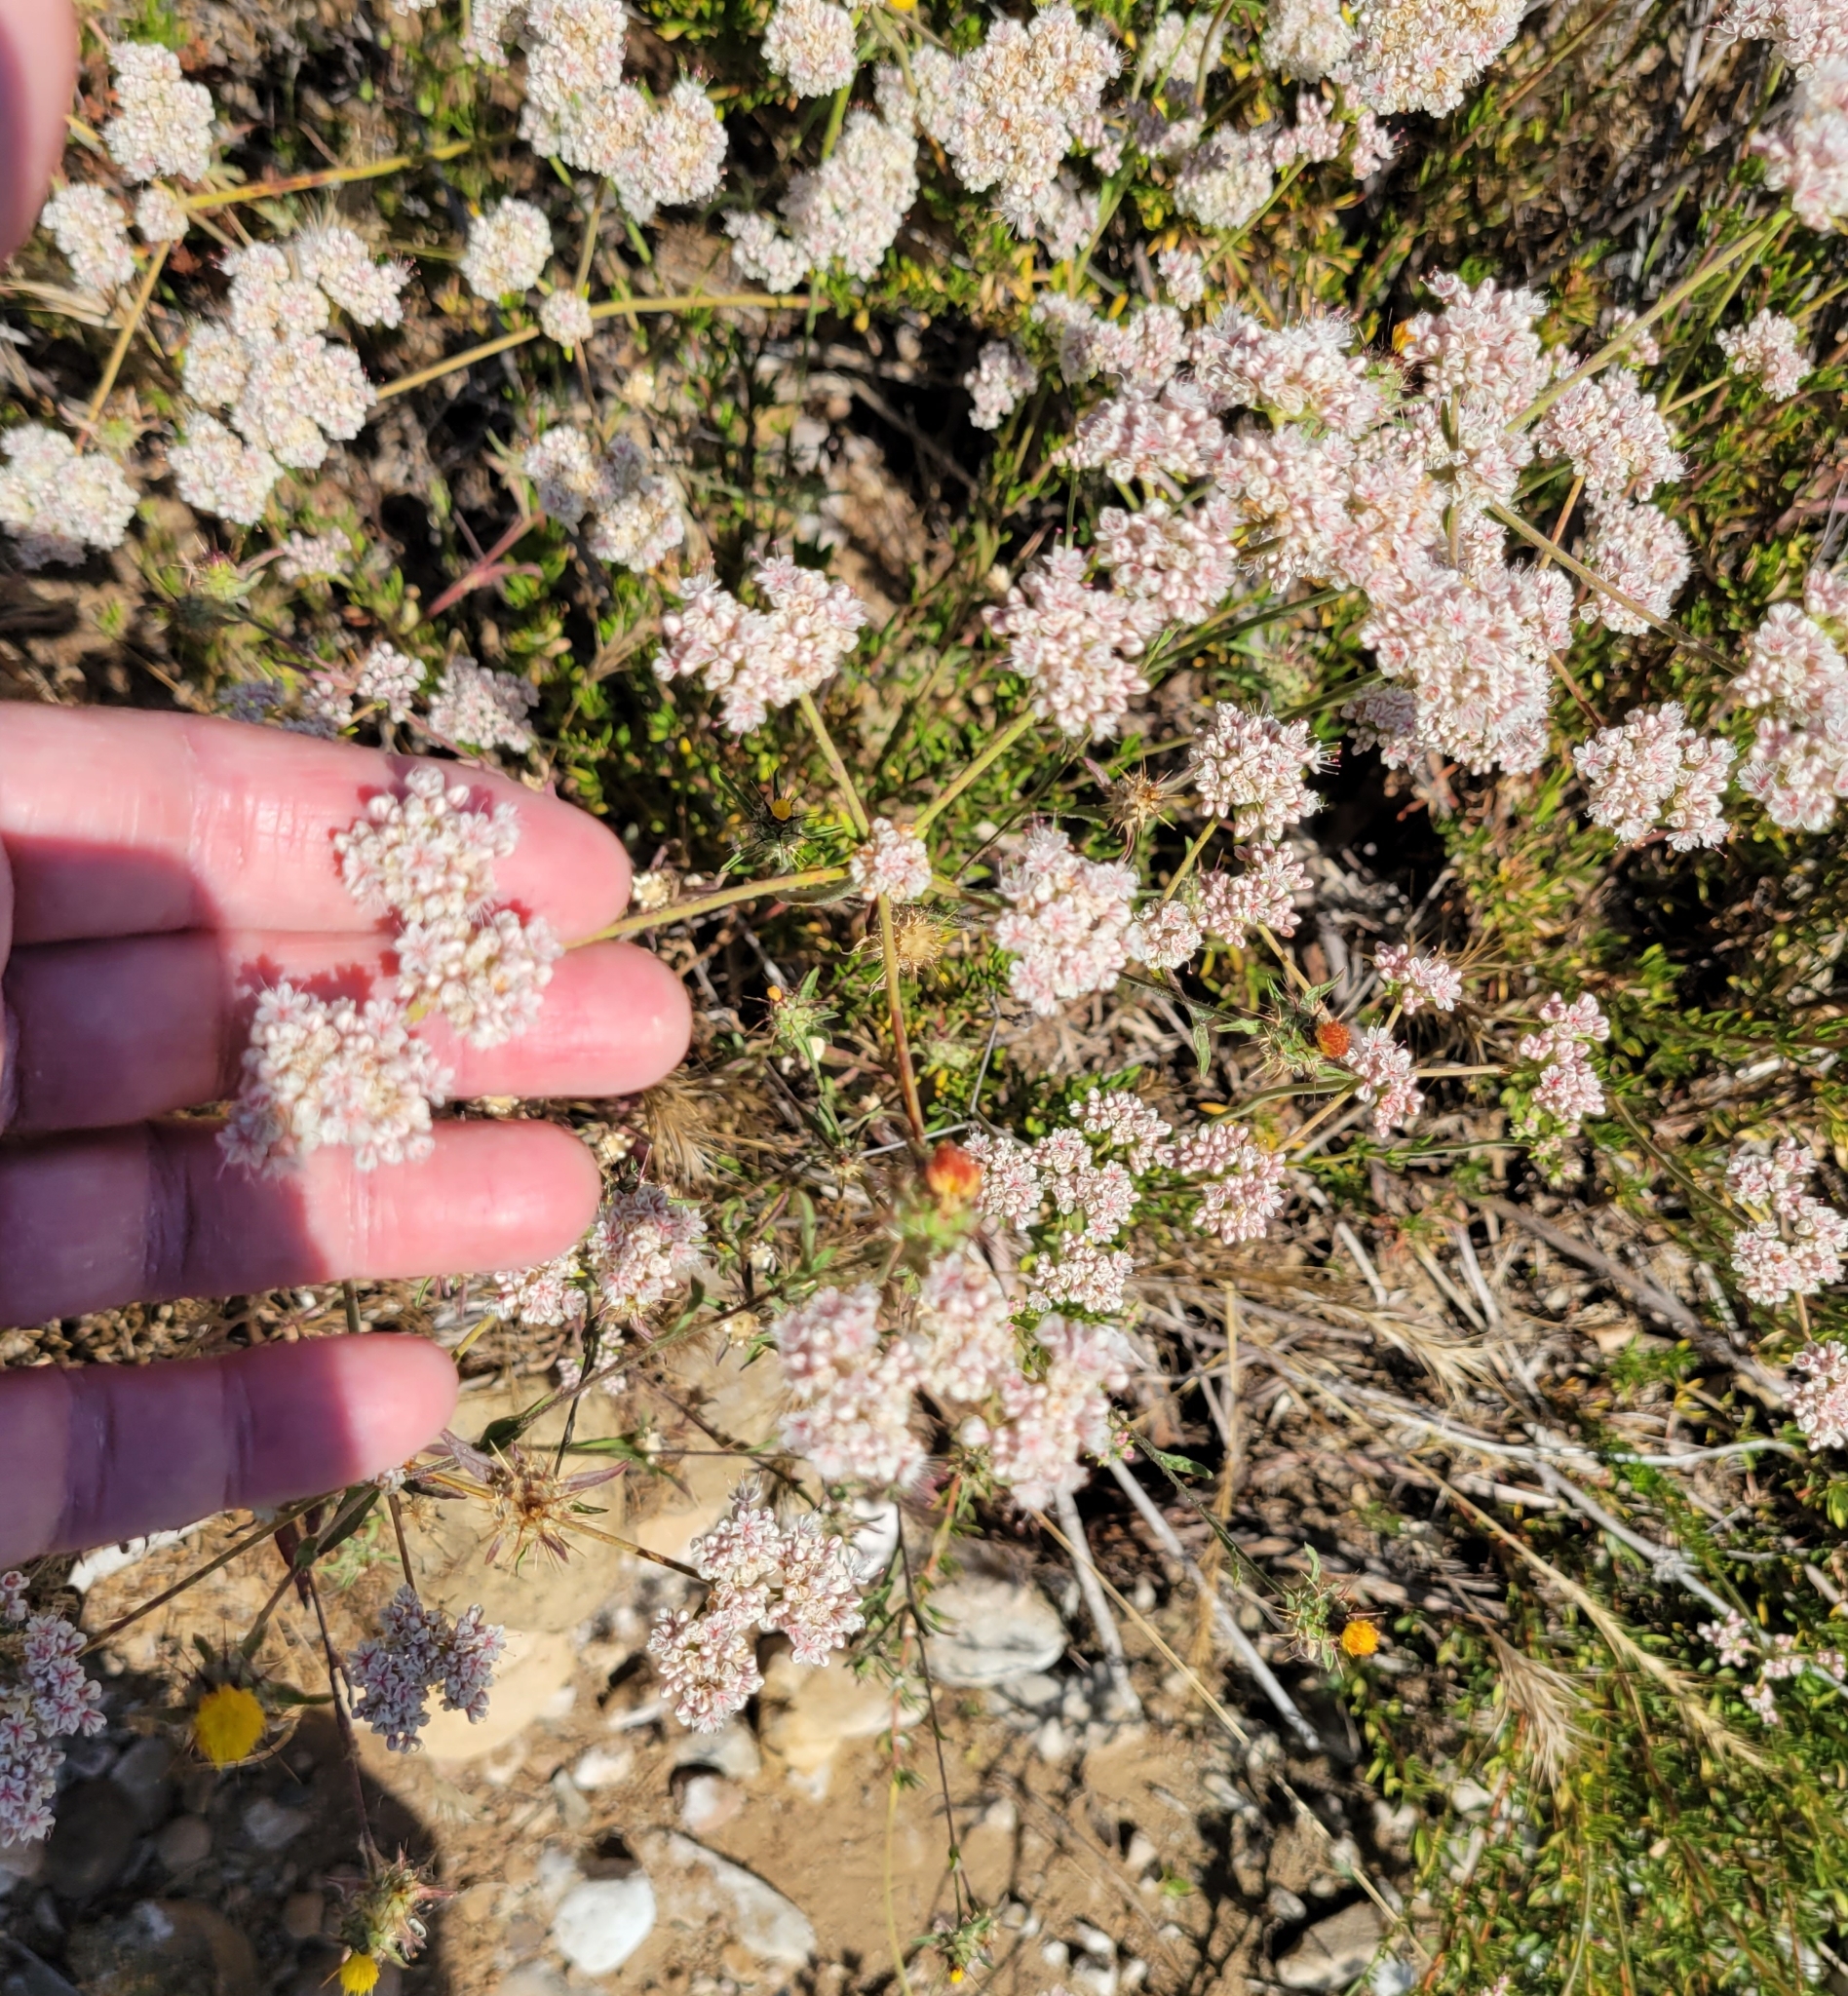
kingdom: Plantae
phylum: Tracheophyta
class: Magnoliopsida
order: Caryophyllales
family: Polygonaceae
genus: Eriogonum
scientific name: Eriogonum fasciculatum
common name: California wild buckwheat
